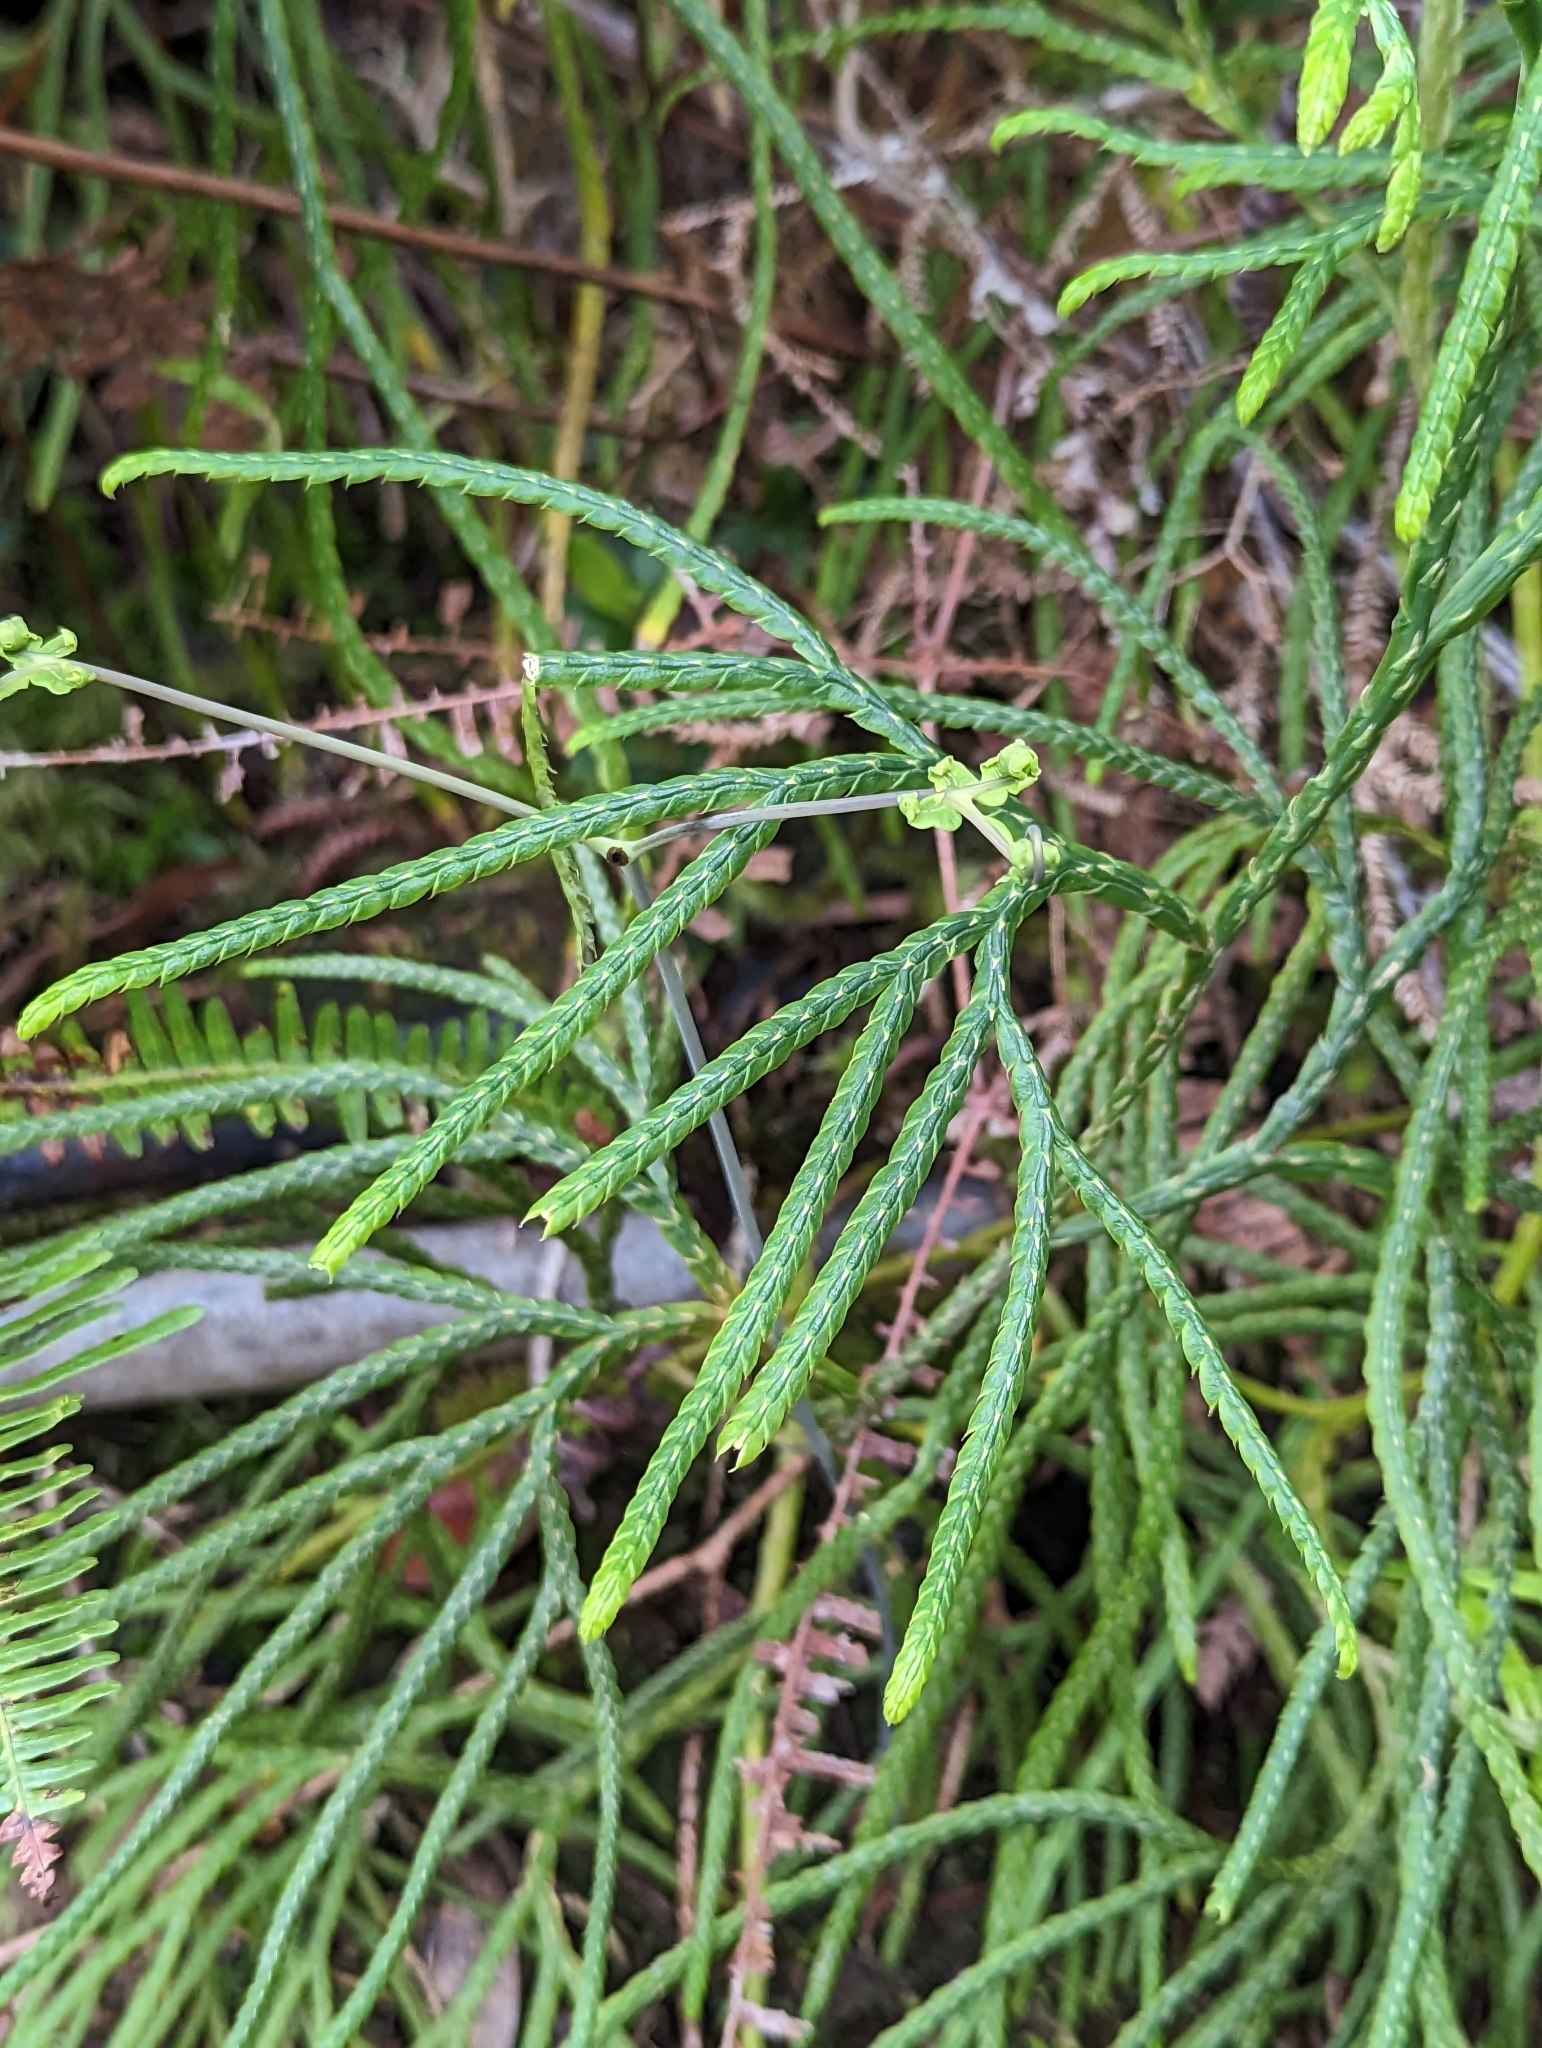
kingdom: Plantae
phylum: Tracheophyta
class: Lycopodiopsida
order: Lycopodiales
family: Lycopodiaceae
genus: Lycopodiastrum
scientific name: Lycopodiastrum casuarinoides
